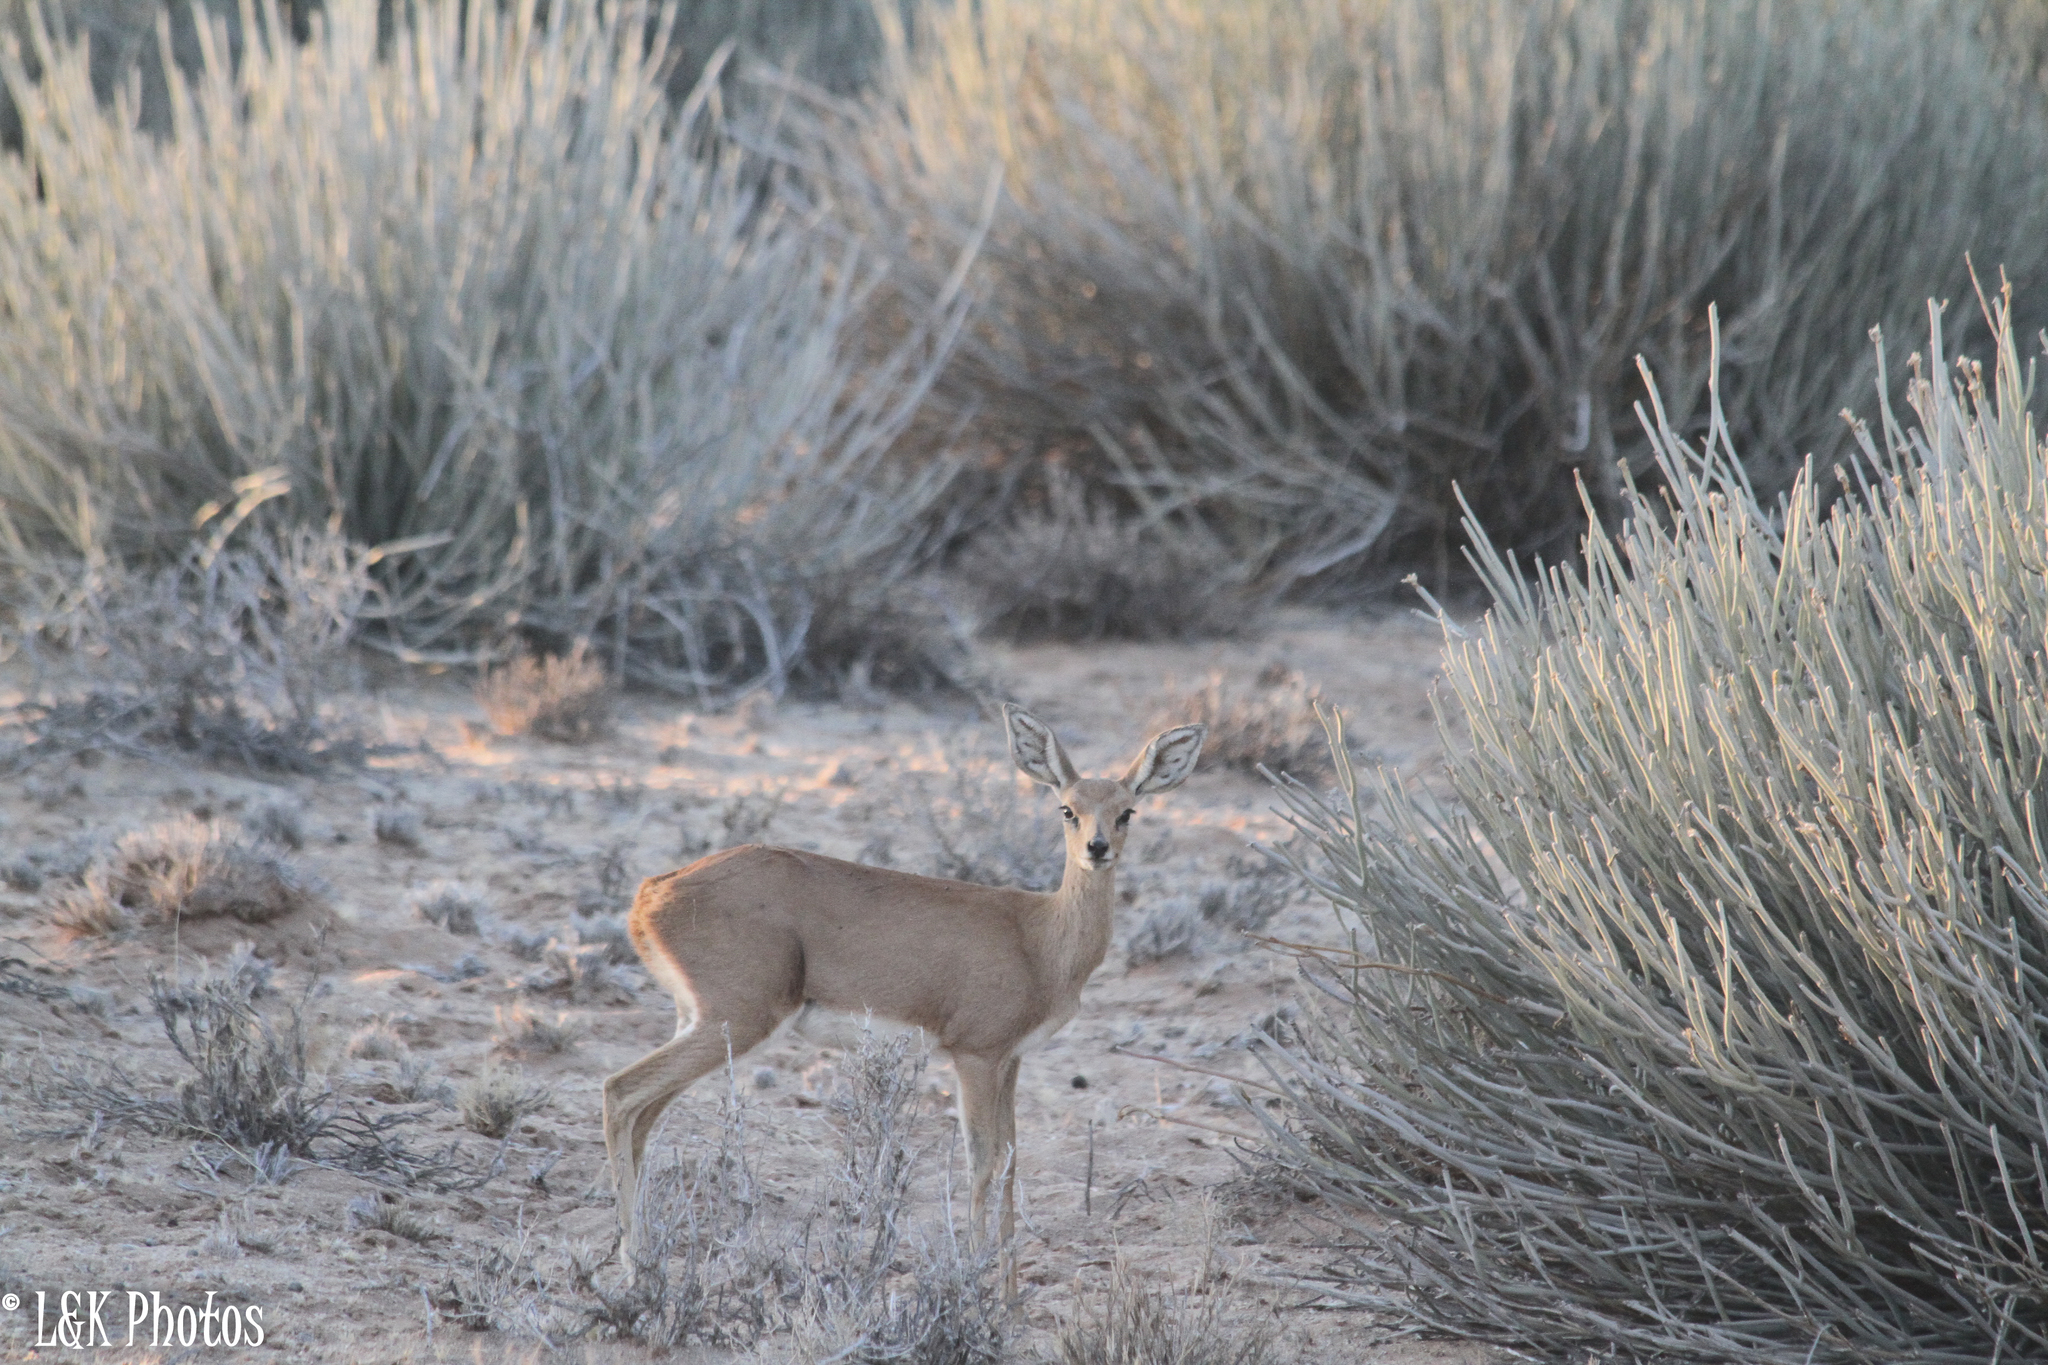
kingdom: Animalia
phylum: Chordata
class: Mammalia
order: Artiodactyla
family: Bovidae
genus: Raphicerus
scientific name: Raphicerus campestris
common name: Steenbok
